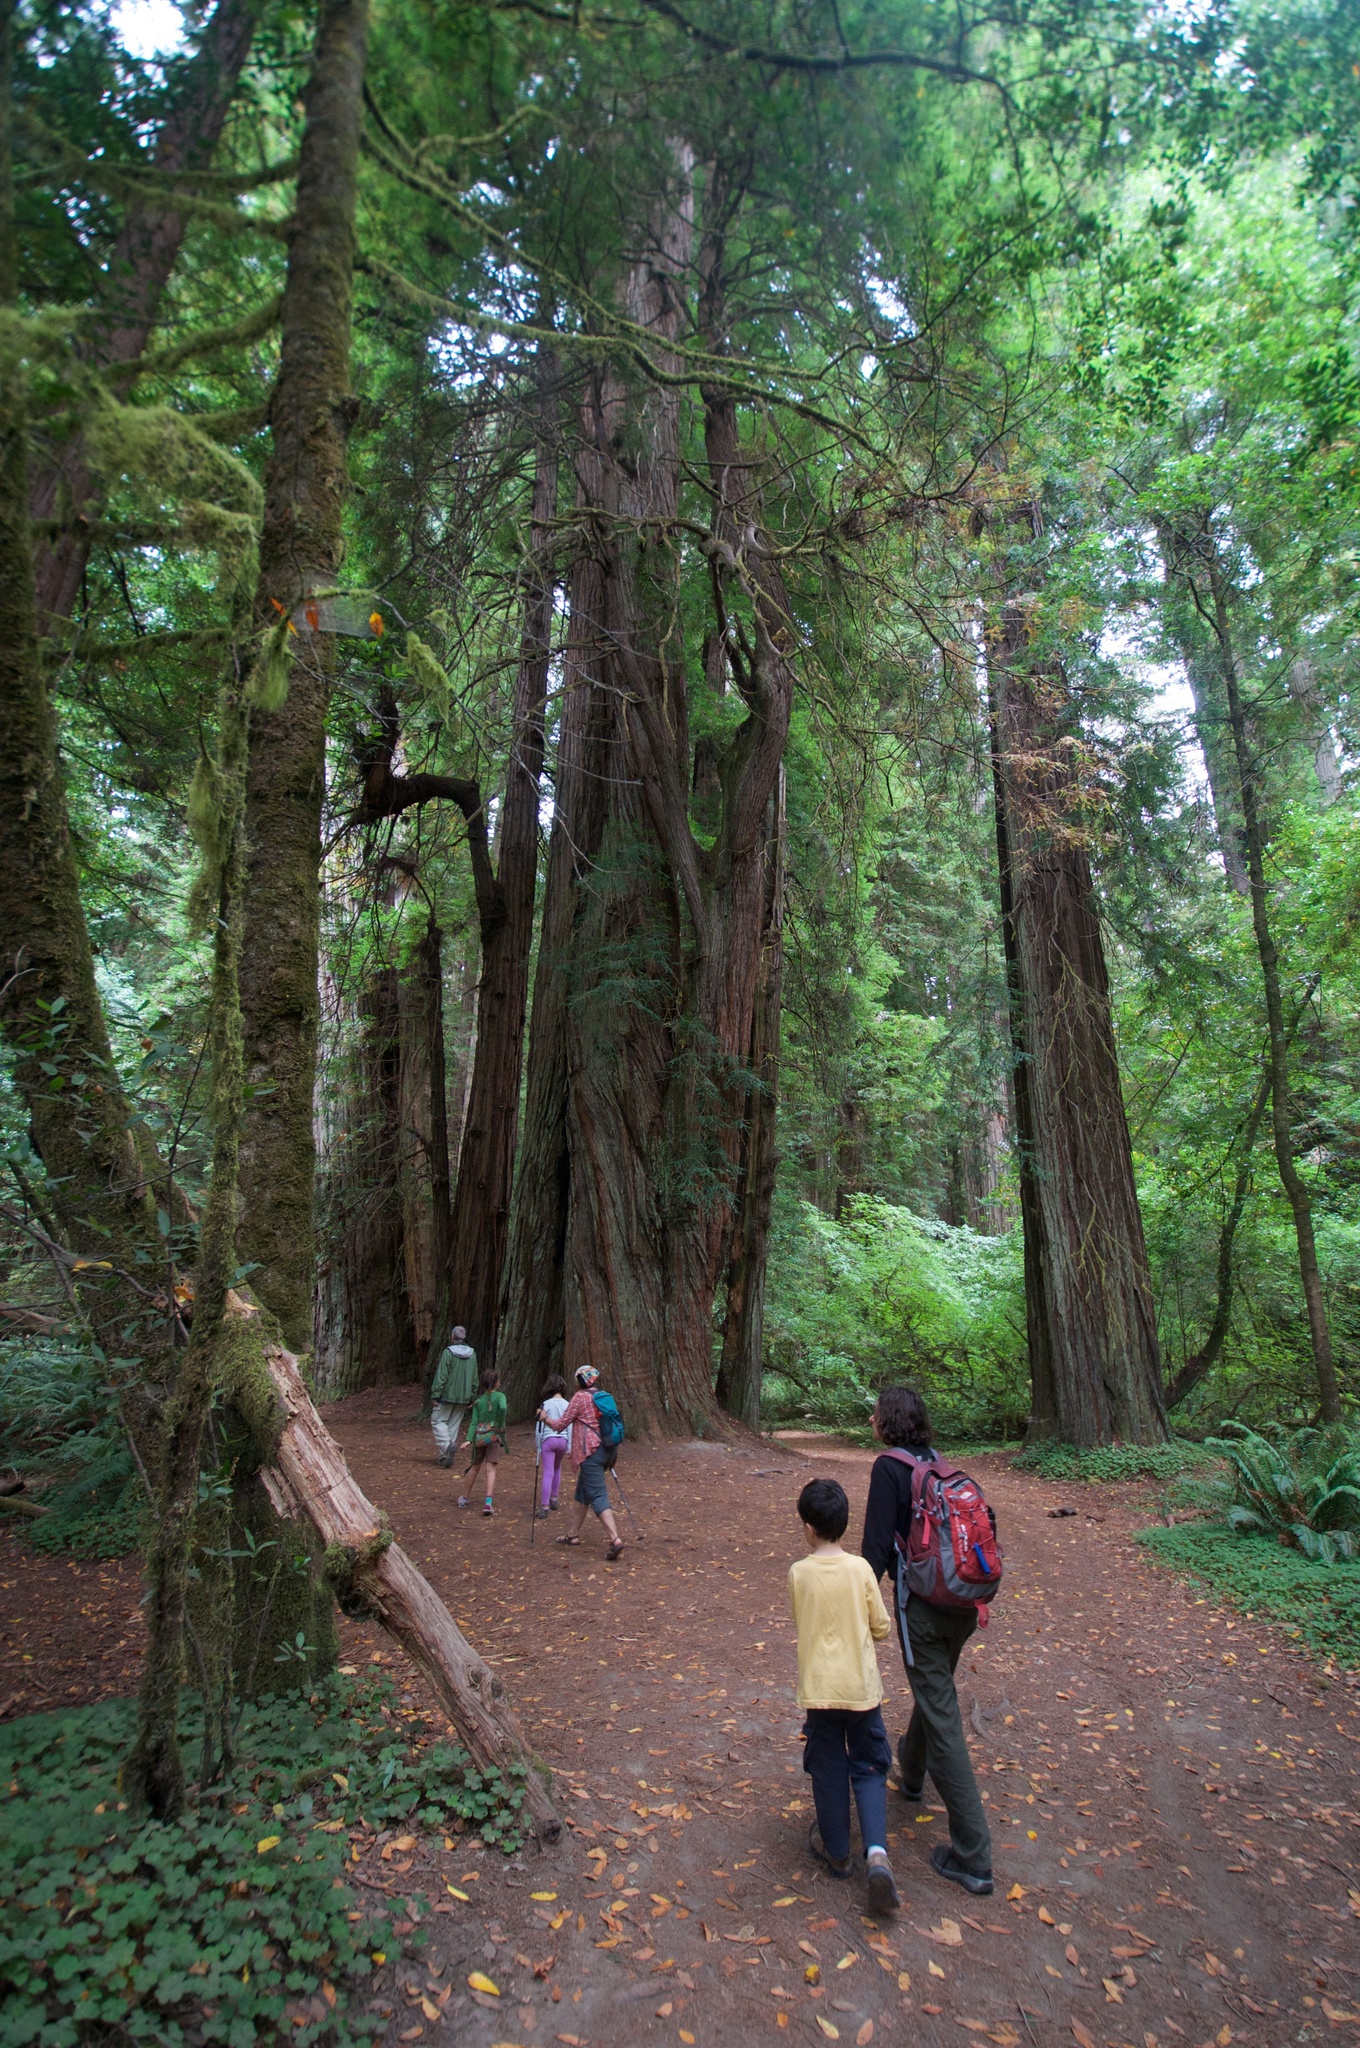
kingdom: Plantae
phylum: Tracheophyta
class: Pinopsida
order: Pinales
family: Cupressaceae
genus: Sequoia
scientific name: Sequoia sempervirens
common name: Coast redwood
